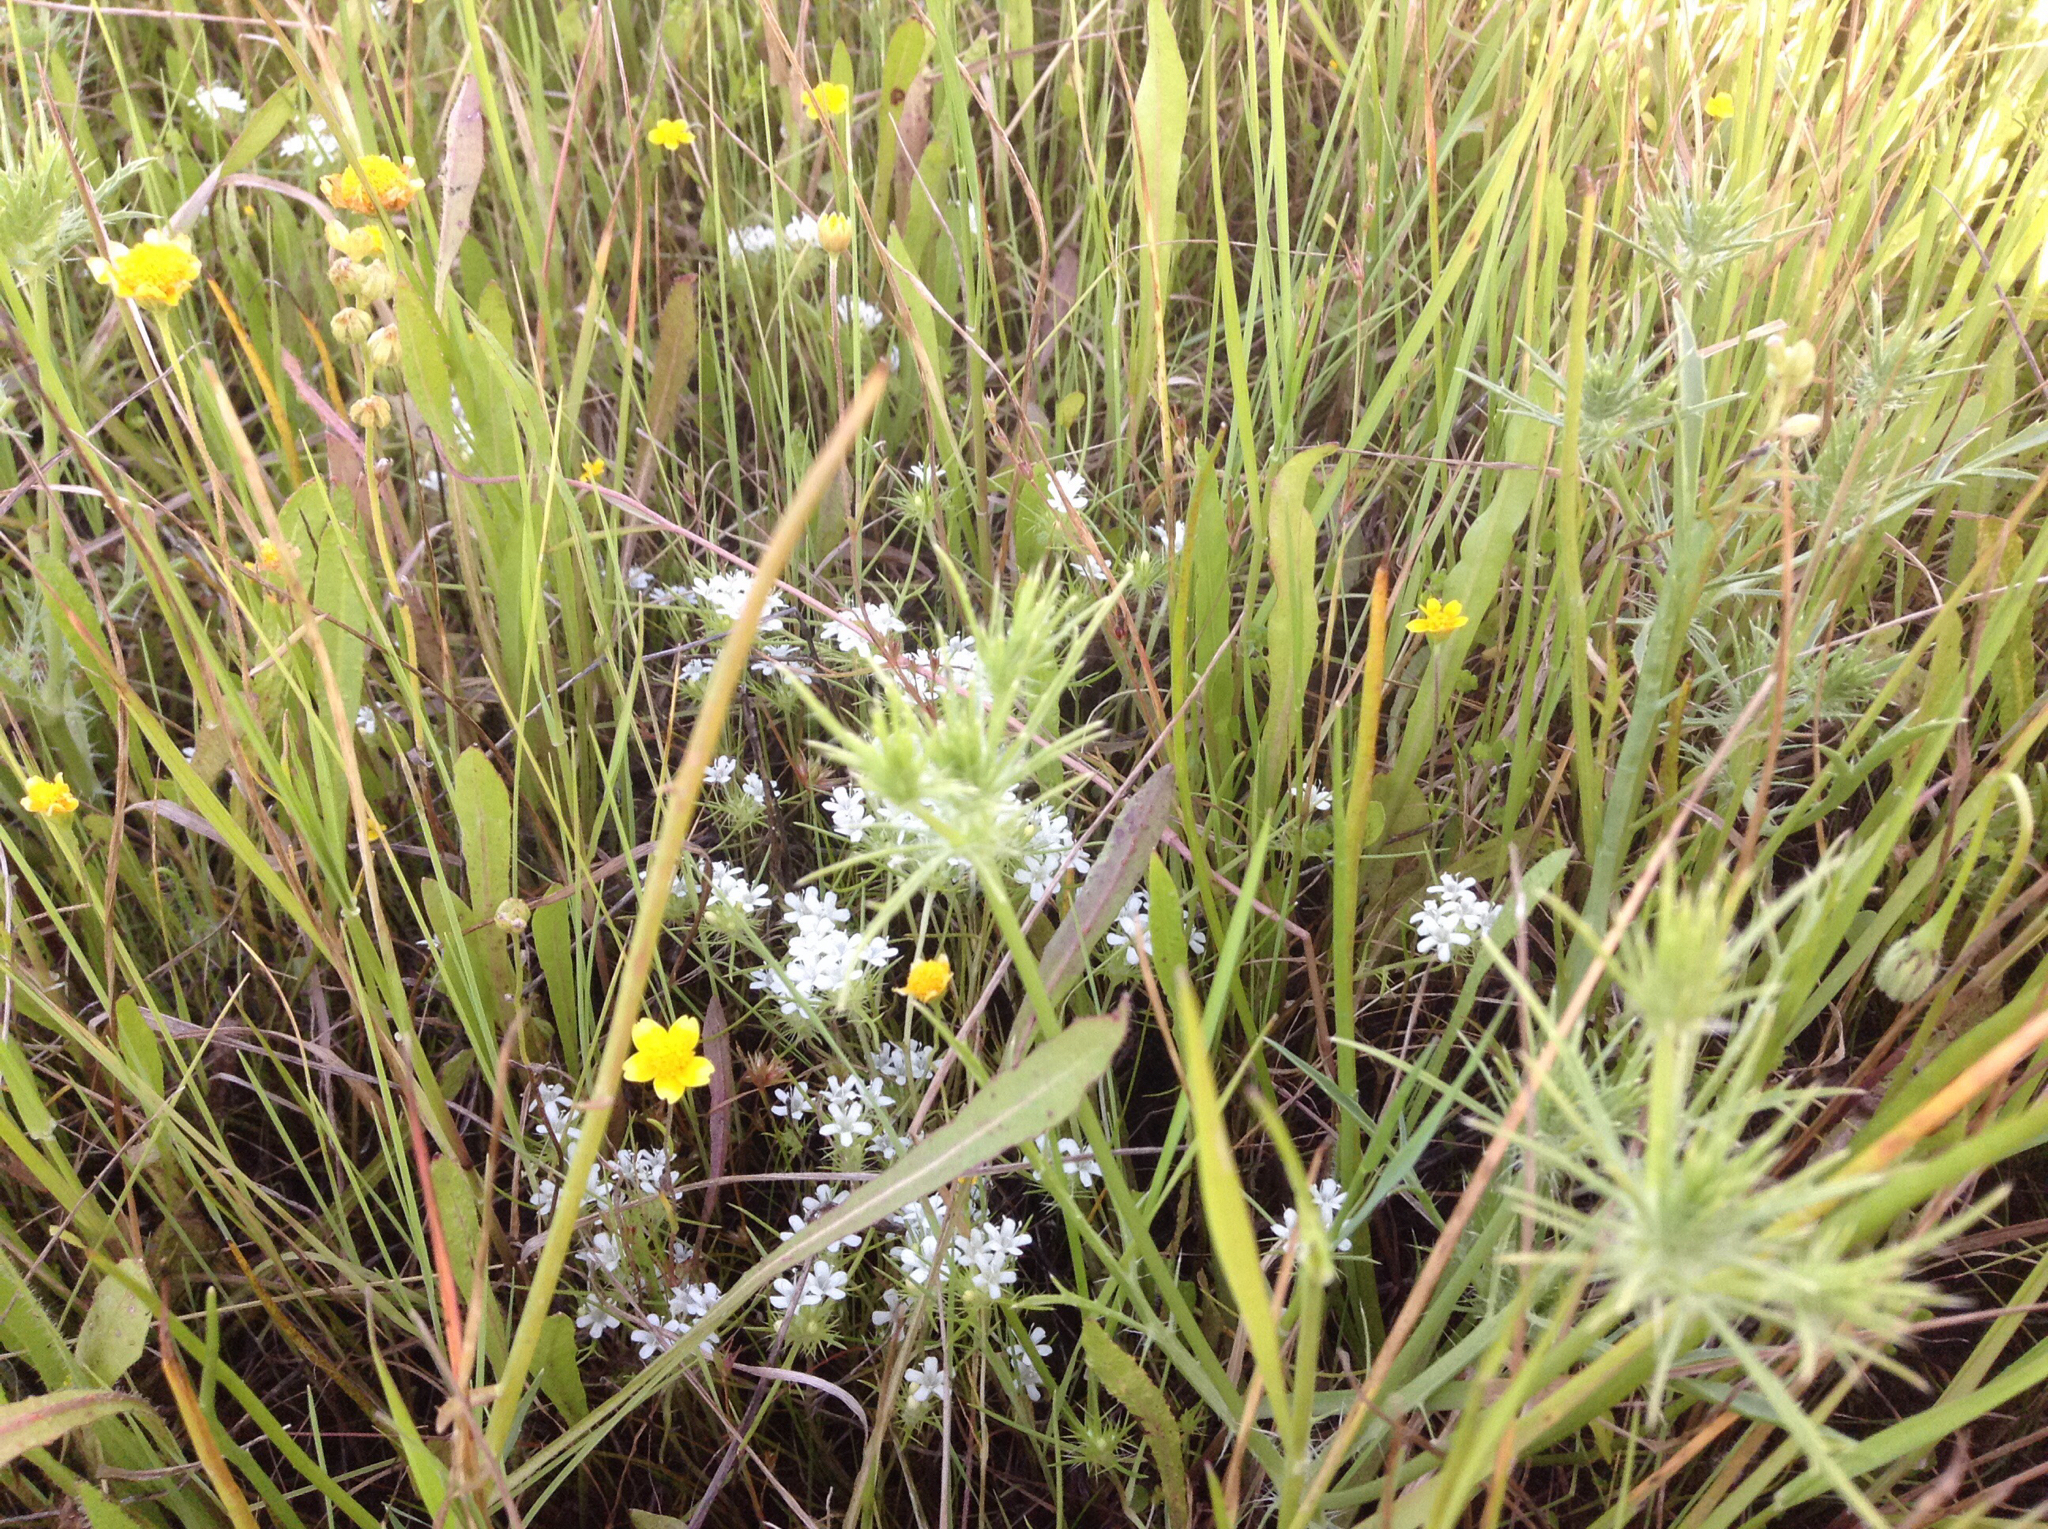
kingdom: Plantae
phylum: Tracheophyta
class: Magnoliopsida
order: Ericales
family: Polemoniaceae
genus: Navarretia
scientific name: Navarretia leucocephala
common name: White-flowered navarretia
